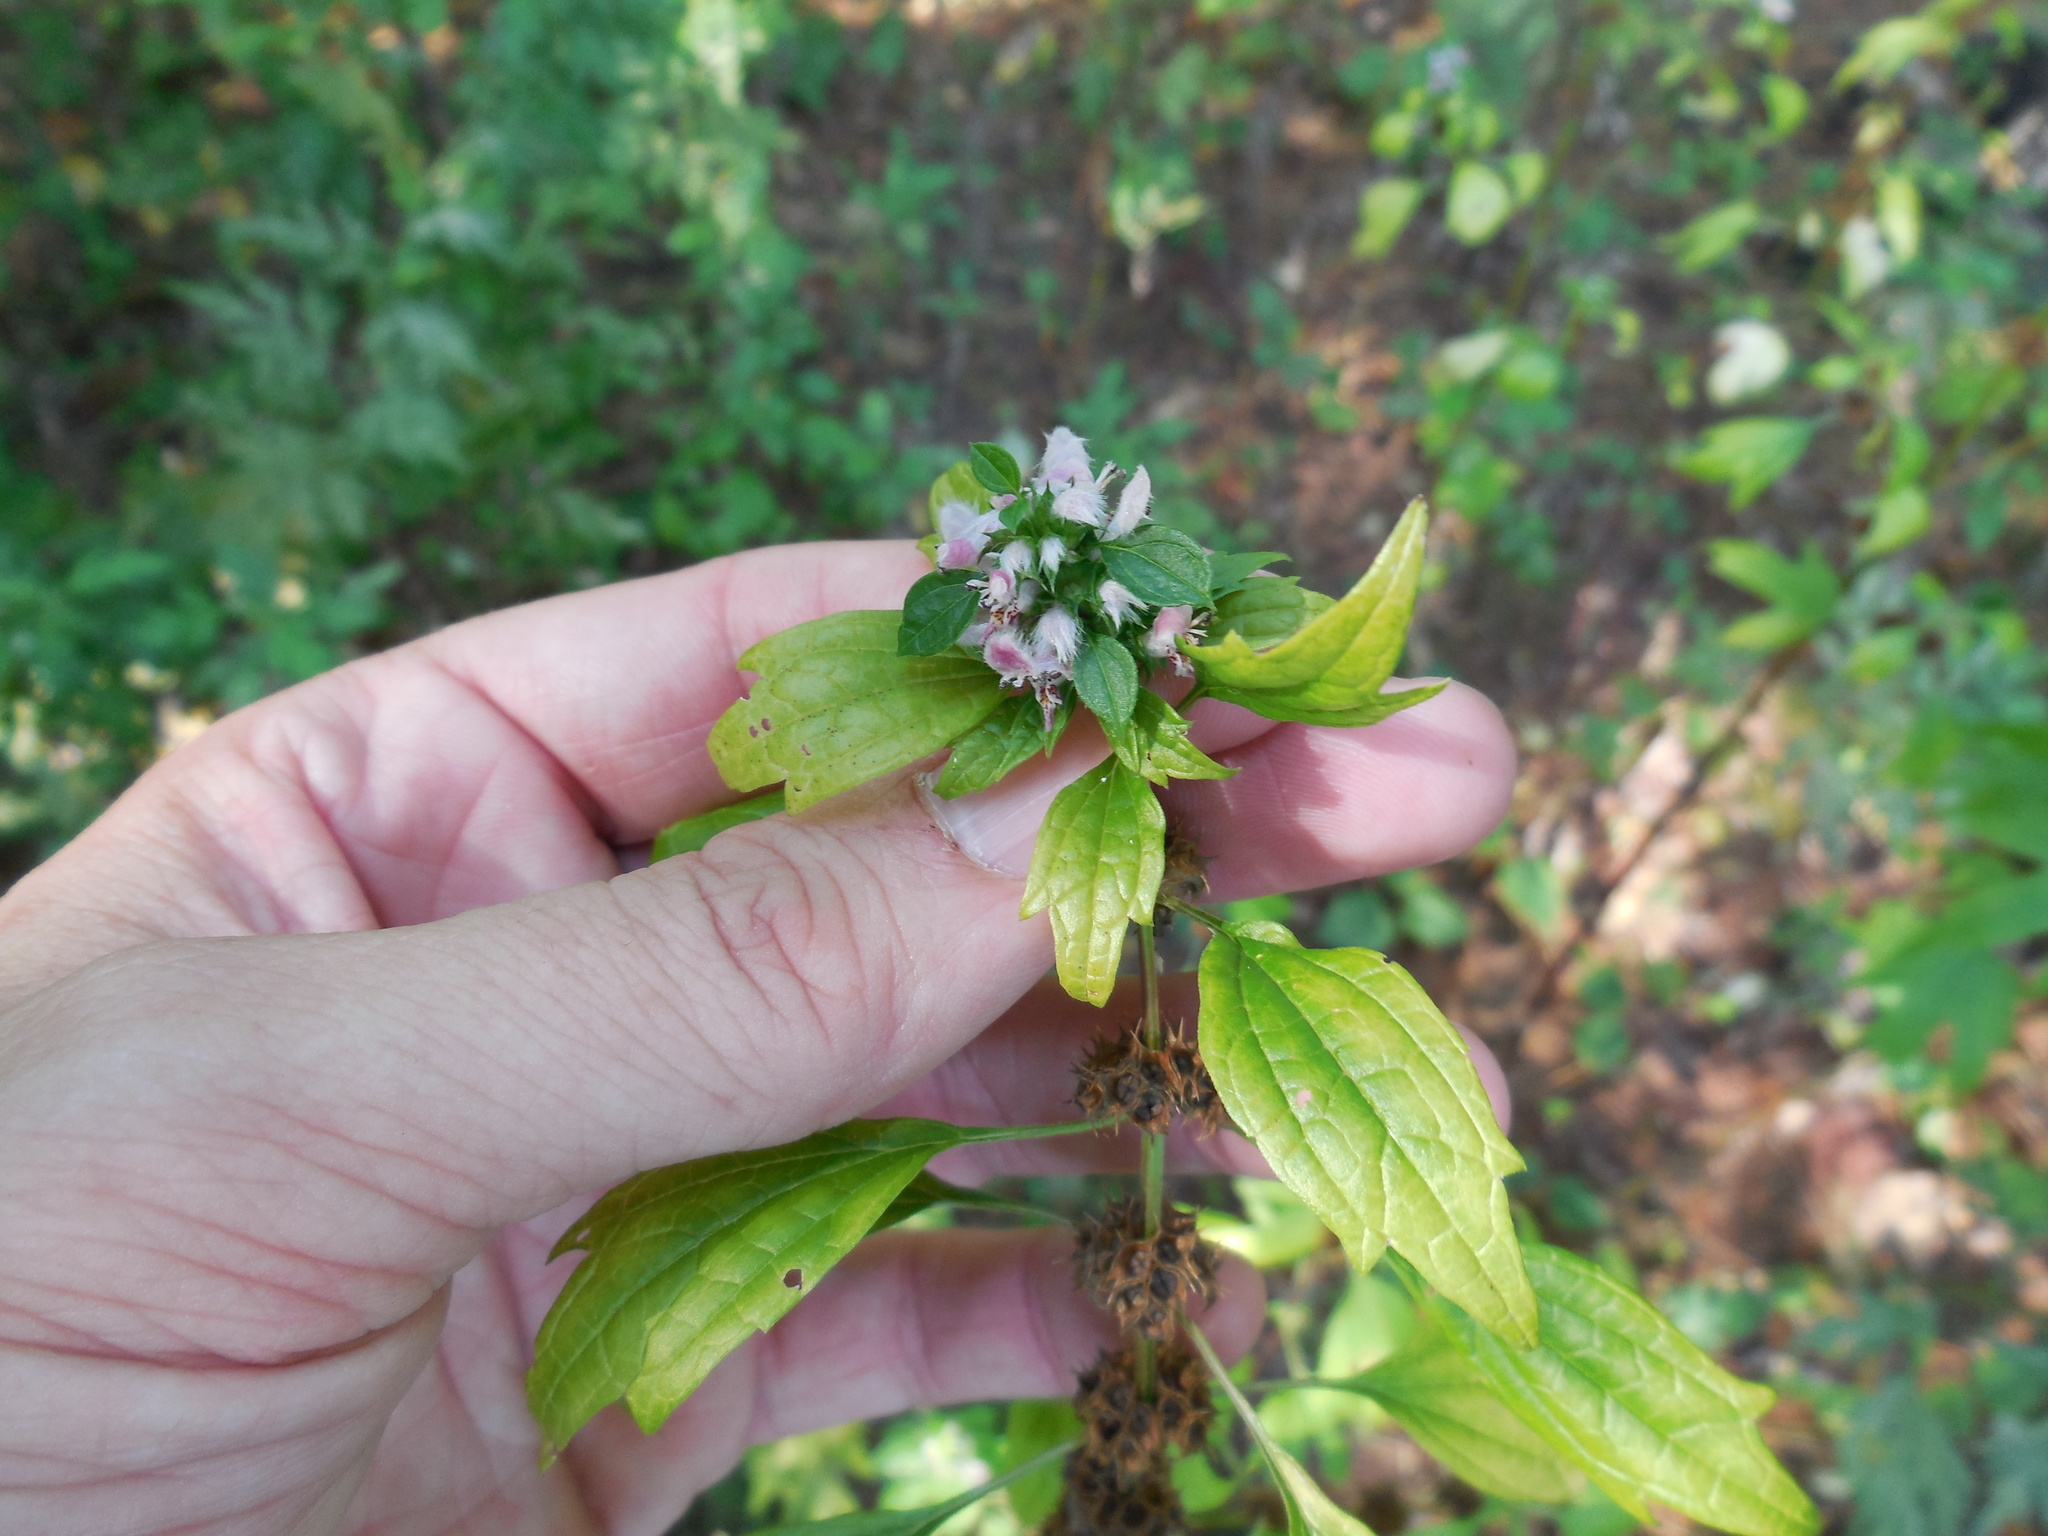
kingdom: Plantae
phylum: Tracheophyta
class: Magnoliopsida
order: Lamiales
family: Lamiaceae
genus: Leonurus
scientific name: Leonurus cardiaca
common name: Motherwort
